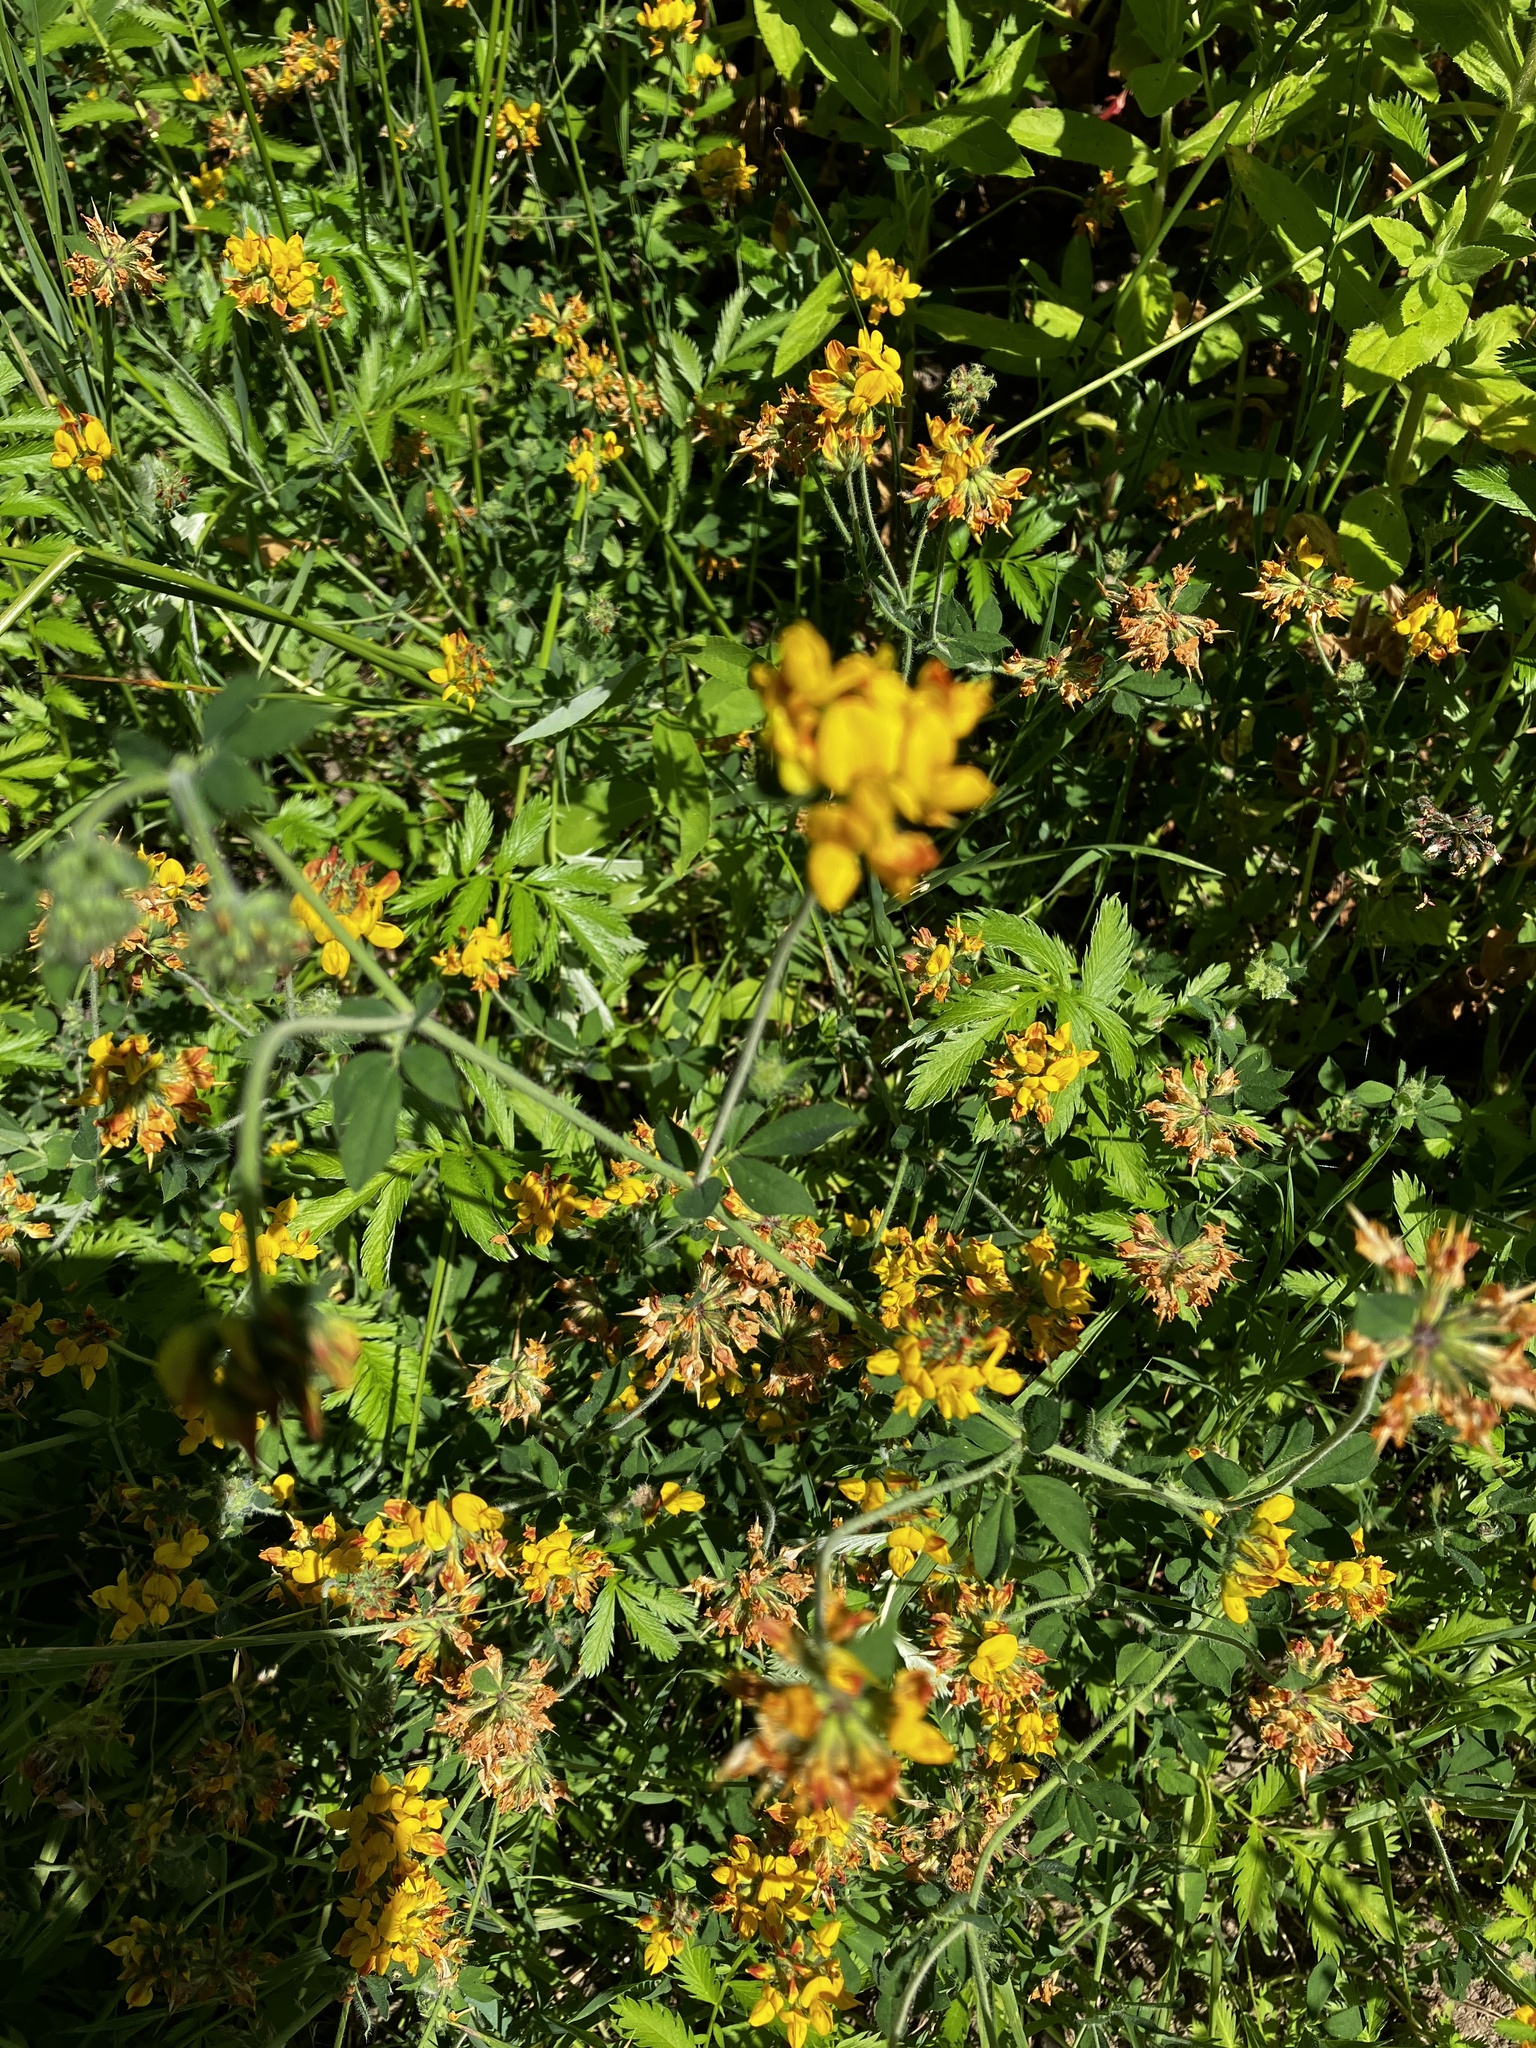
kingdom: Plantae
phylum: Tracheophyta
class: Magnoliopsida
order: Fabales
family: Fabaceae
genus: Lotus
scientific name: Lotus pedunculatus
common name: Greater birdsfoot-trefoil
